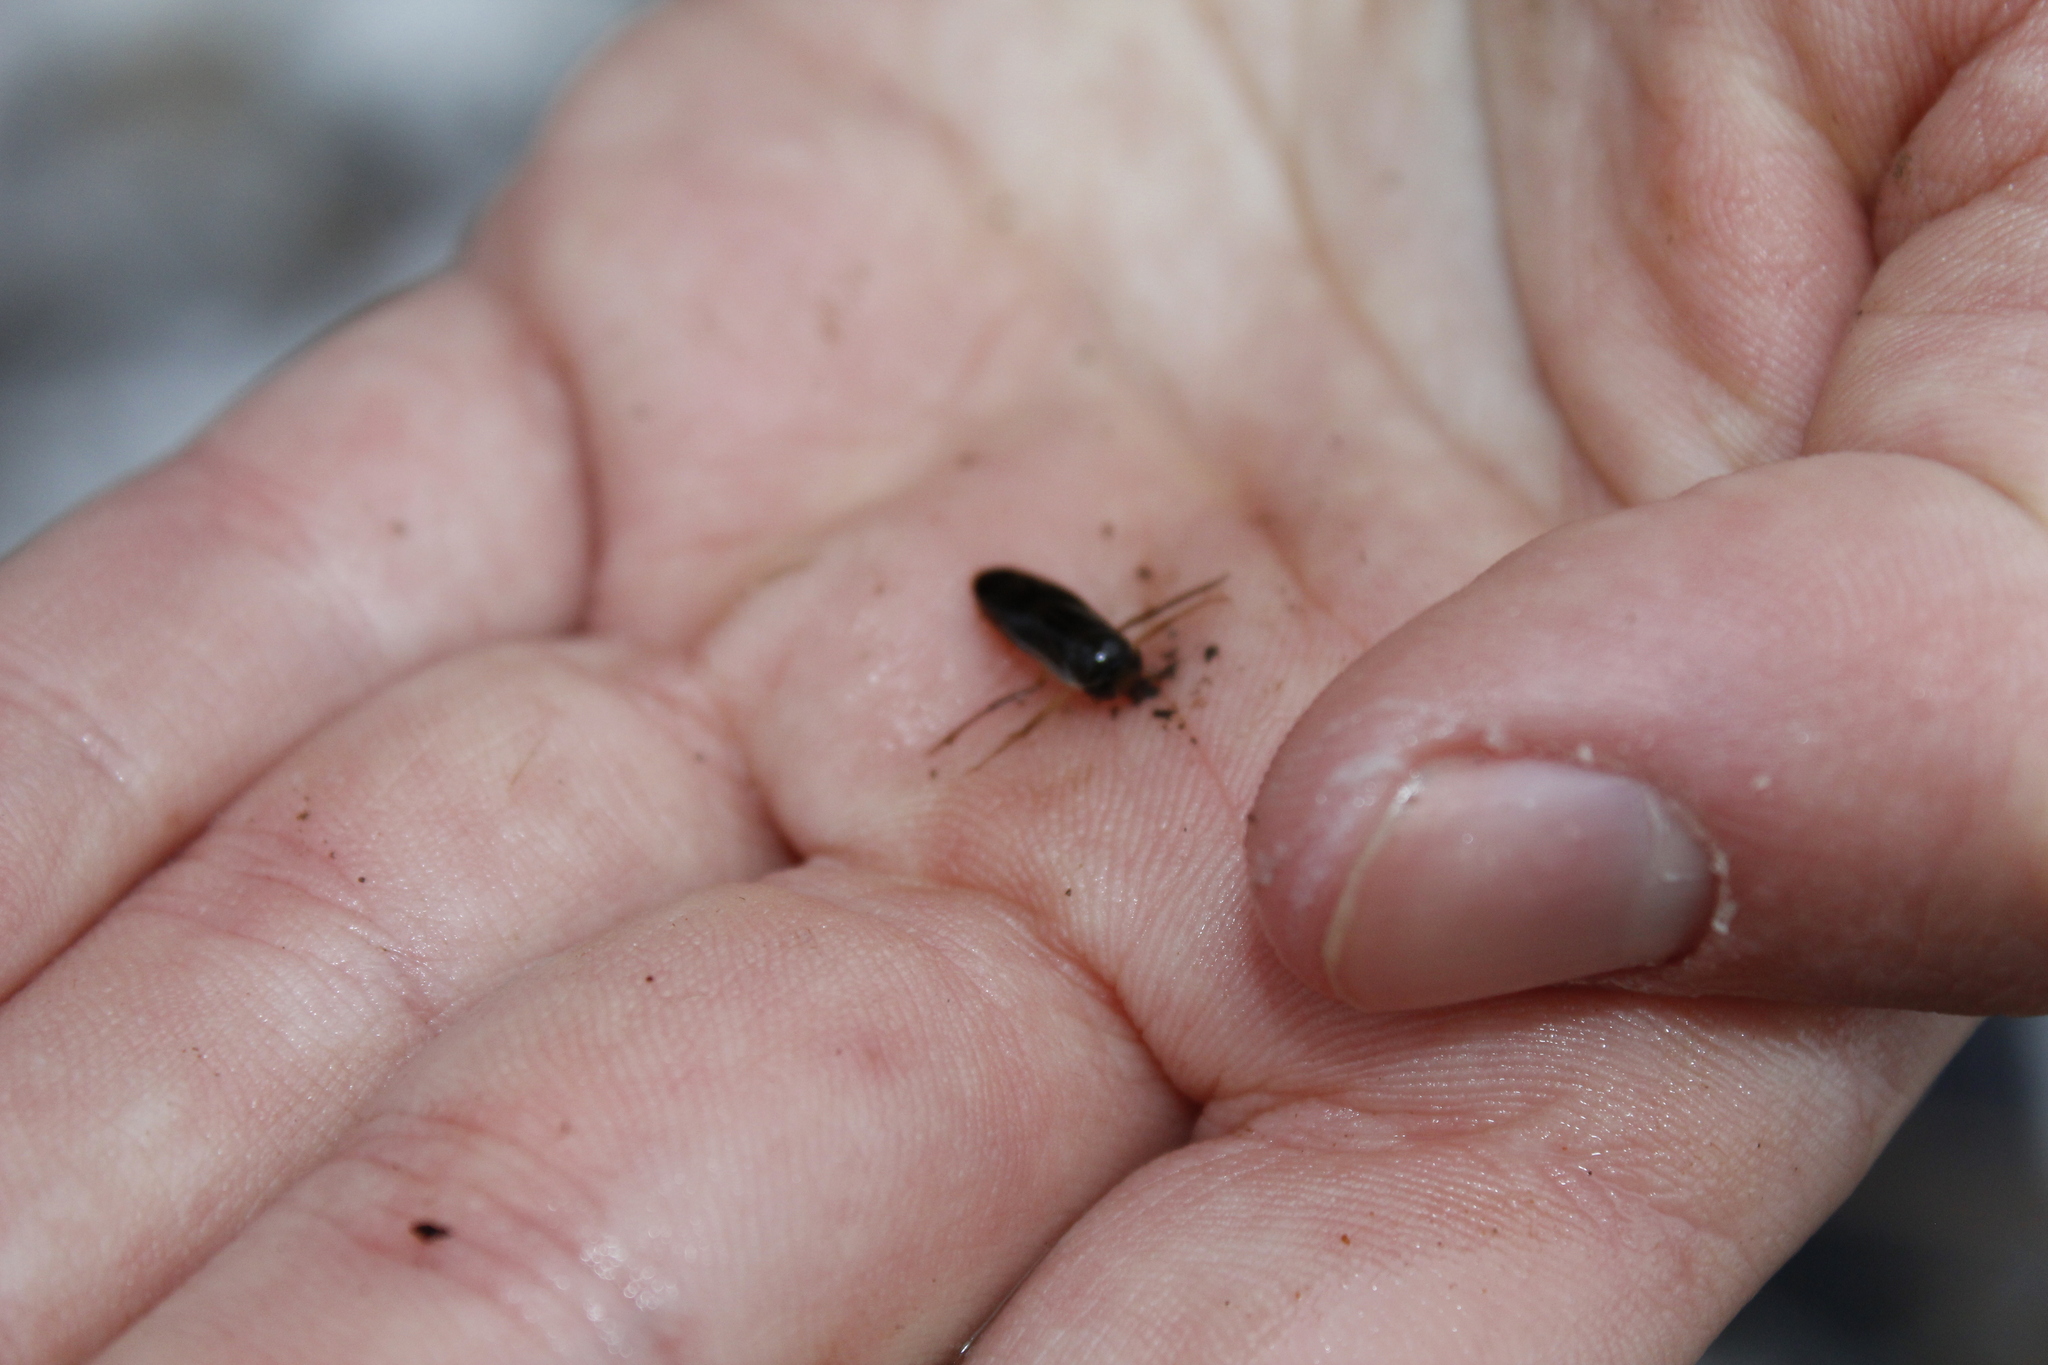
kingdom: Animalia
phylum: Arthropoda
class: Insecta
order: Hemiptera
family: Corixidae
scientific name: Corixidae
